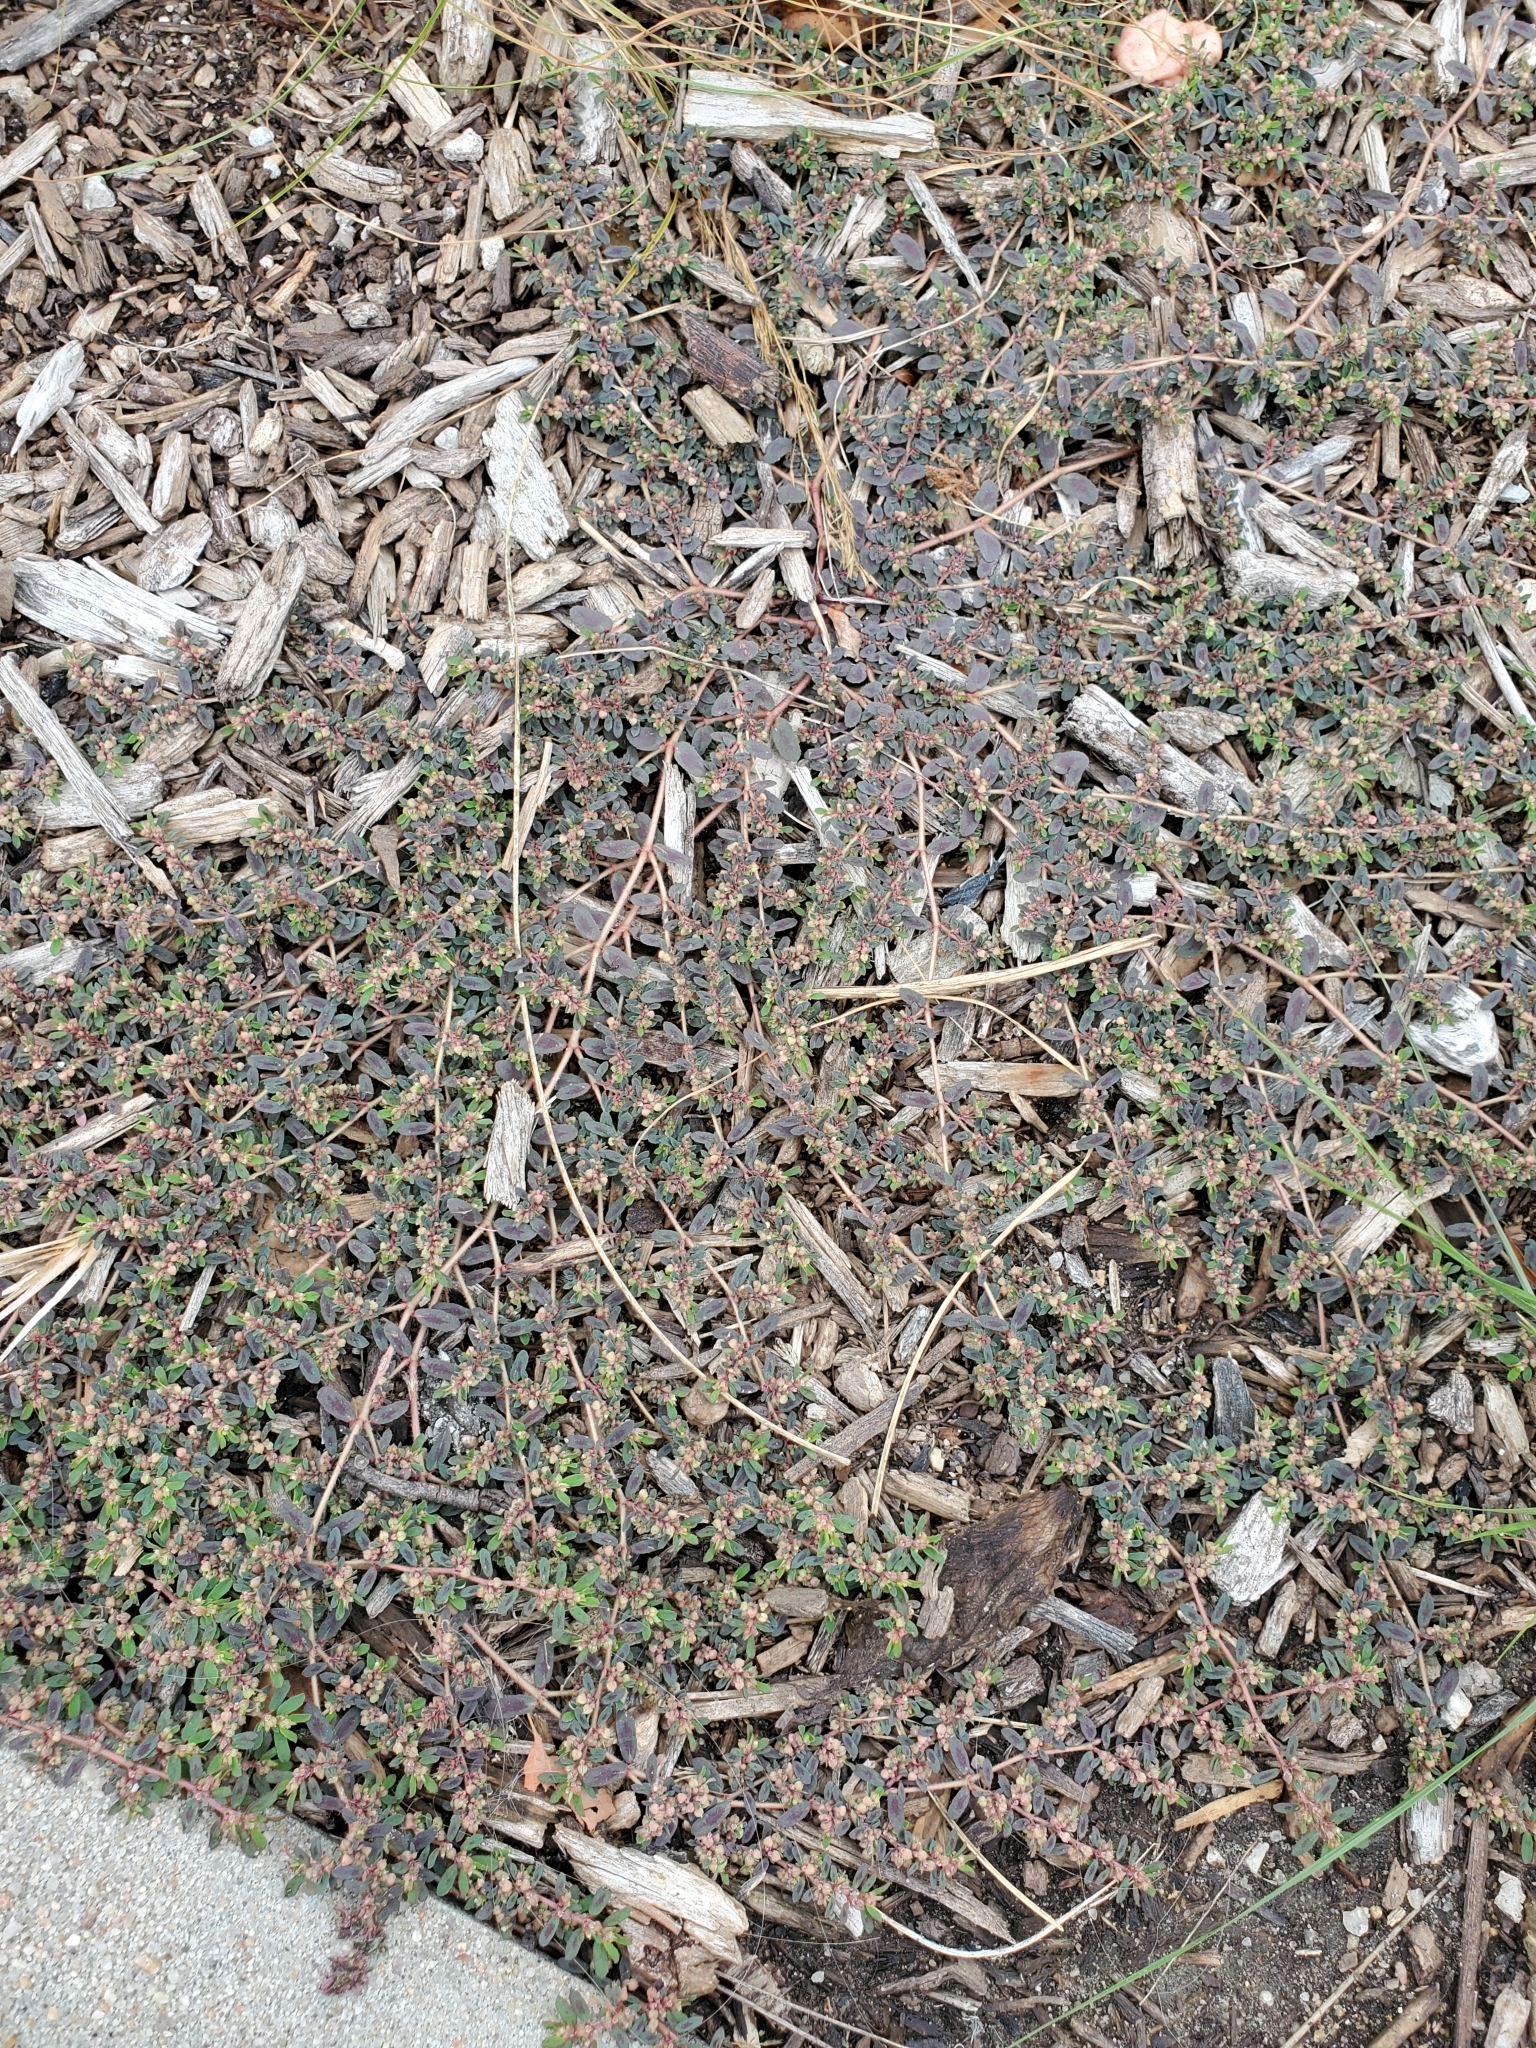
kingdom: Plantae
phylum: Tracheophyta
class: Magnoliopsida
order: Malpighiales
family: Euphorbiaceae
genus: Euphorbia
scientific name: Euphorbia maculata
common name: Spotted spurge
